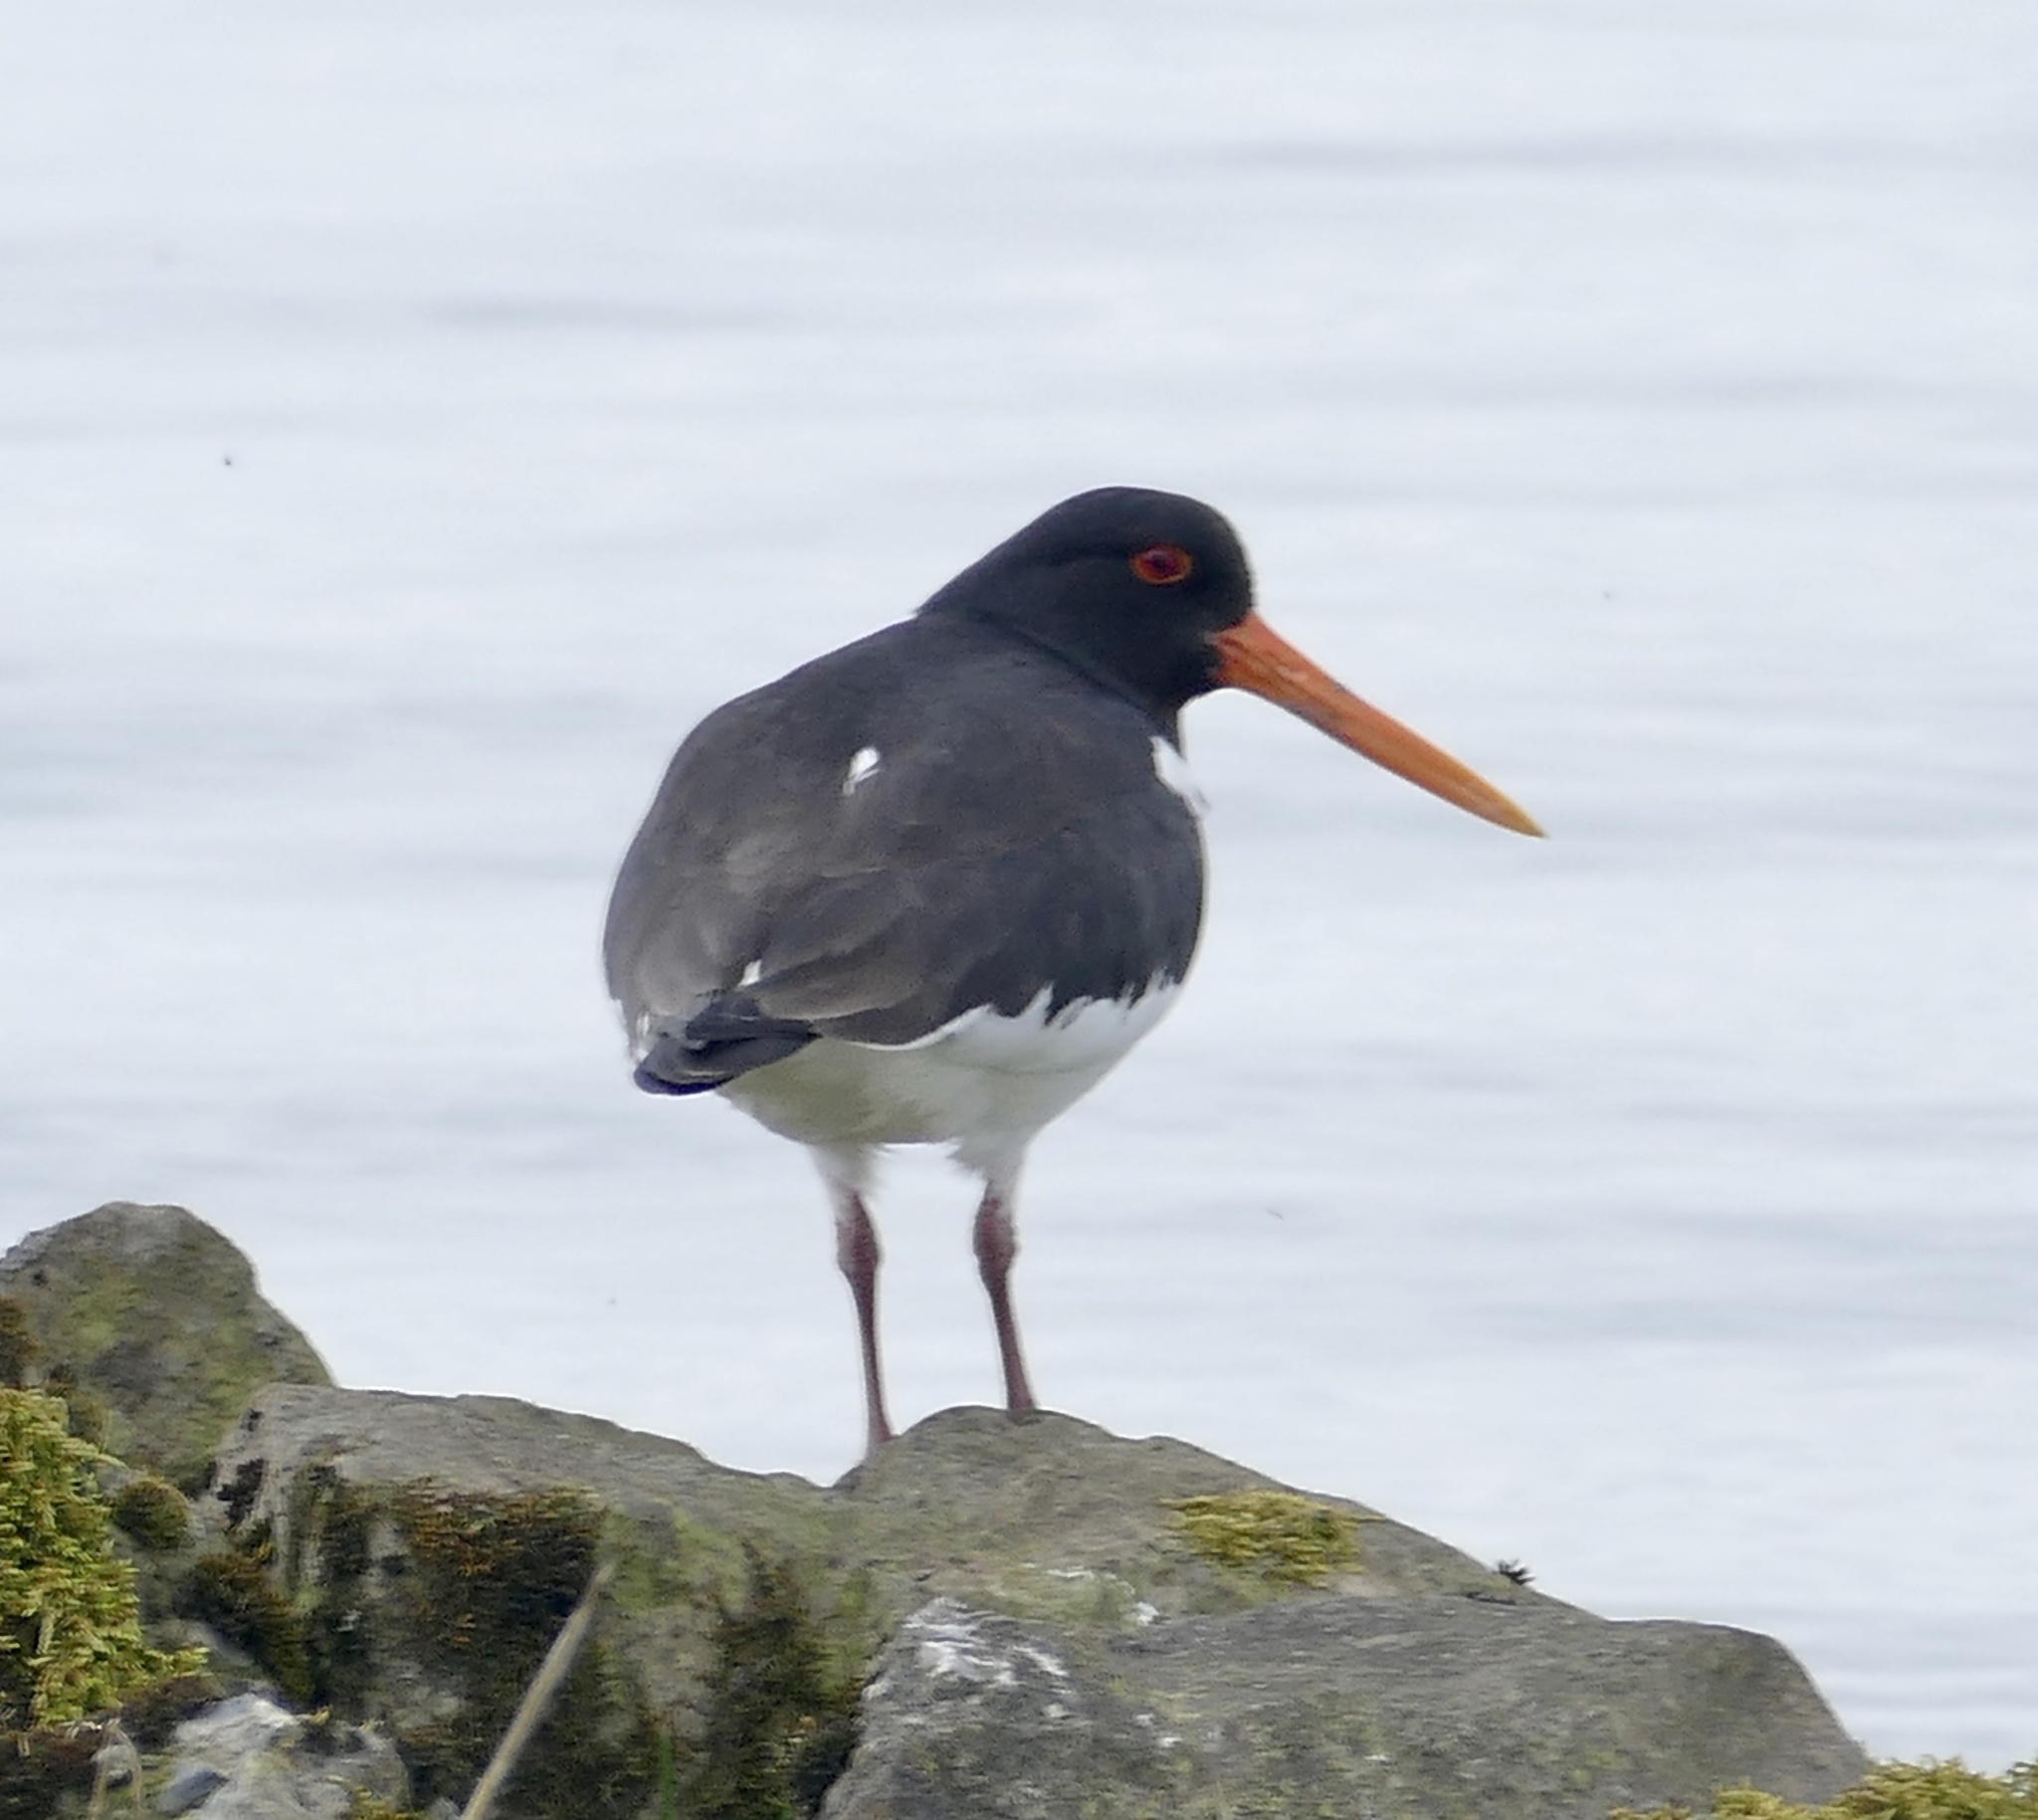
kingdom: Animalia
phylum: Chordata
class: Aves
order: Charadriiformes
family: Haematopodidae
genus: Haematopus
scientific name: Haematopus ostralegus
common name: Eurasian oystercatcher
